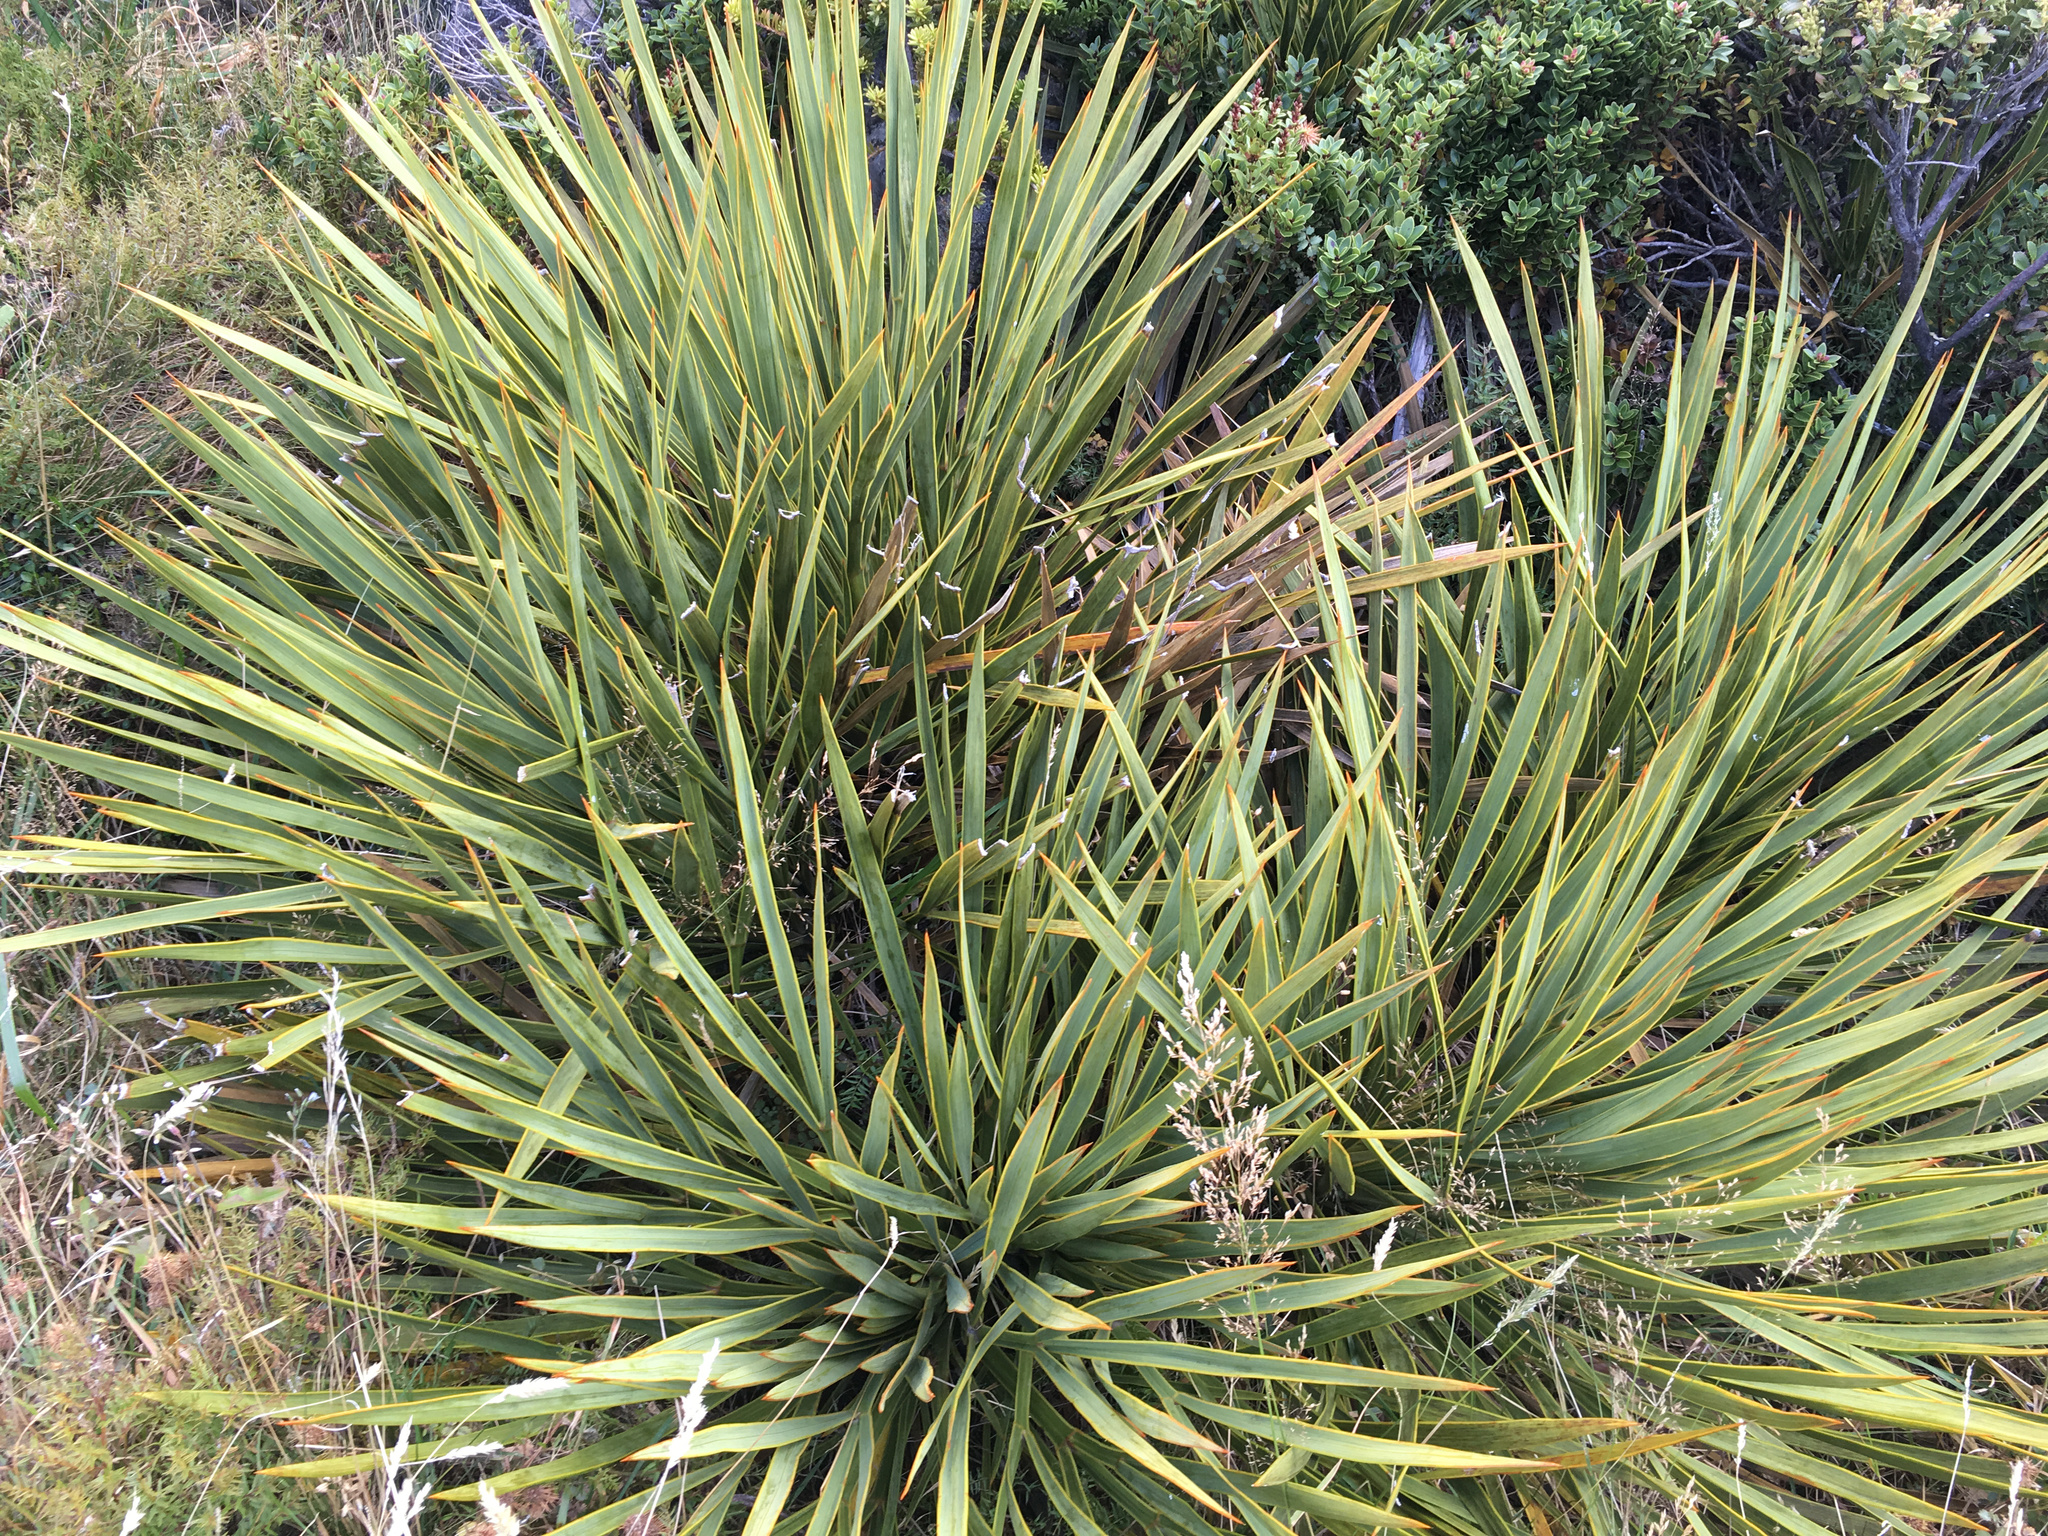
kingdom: Plantae
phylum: Tracheophyta
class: Magnoliopsida
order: Apiales
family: Apiaceae
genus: Aciphylla
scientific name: Aciphylla aurea
